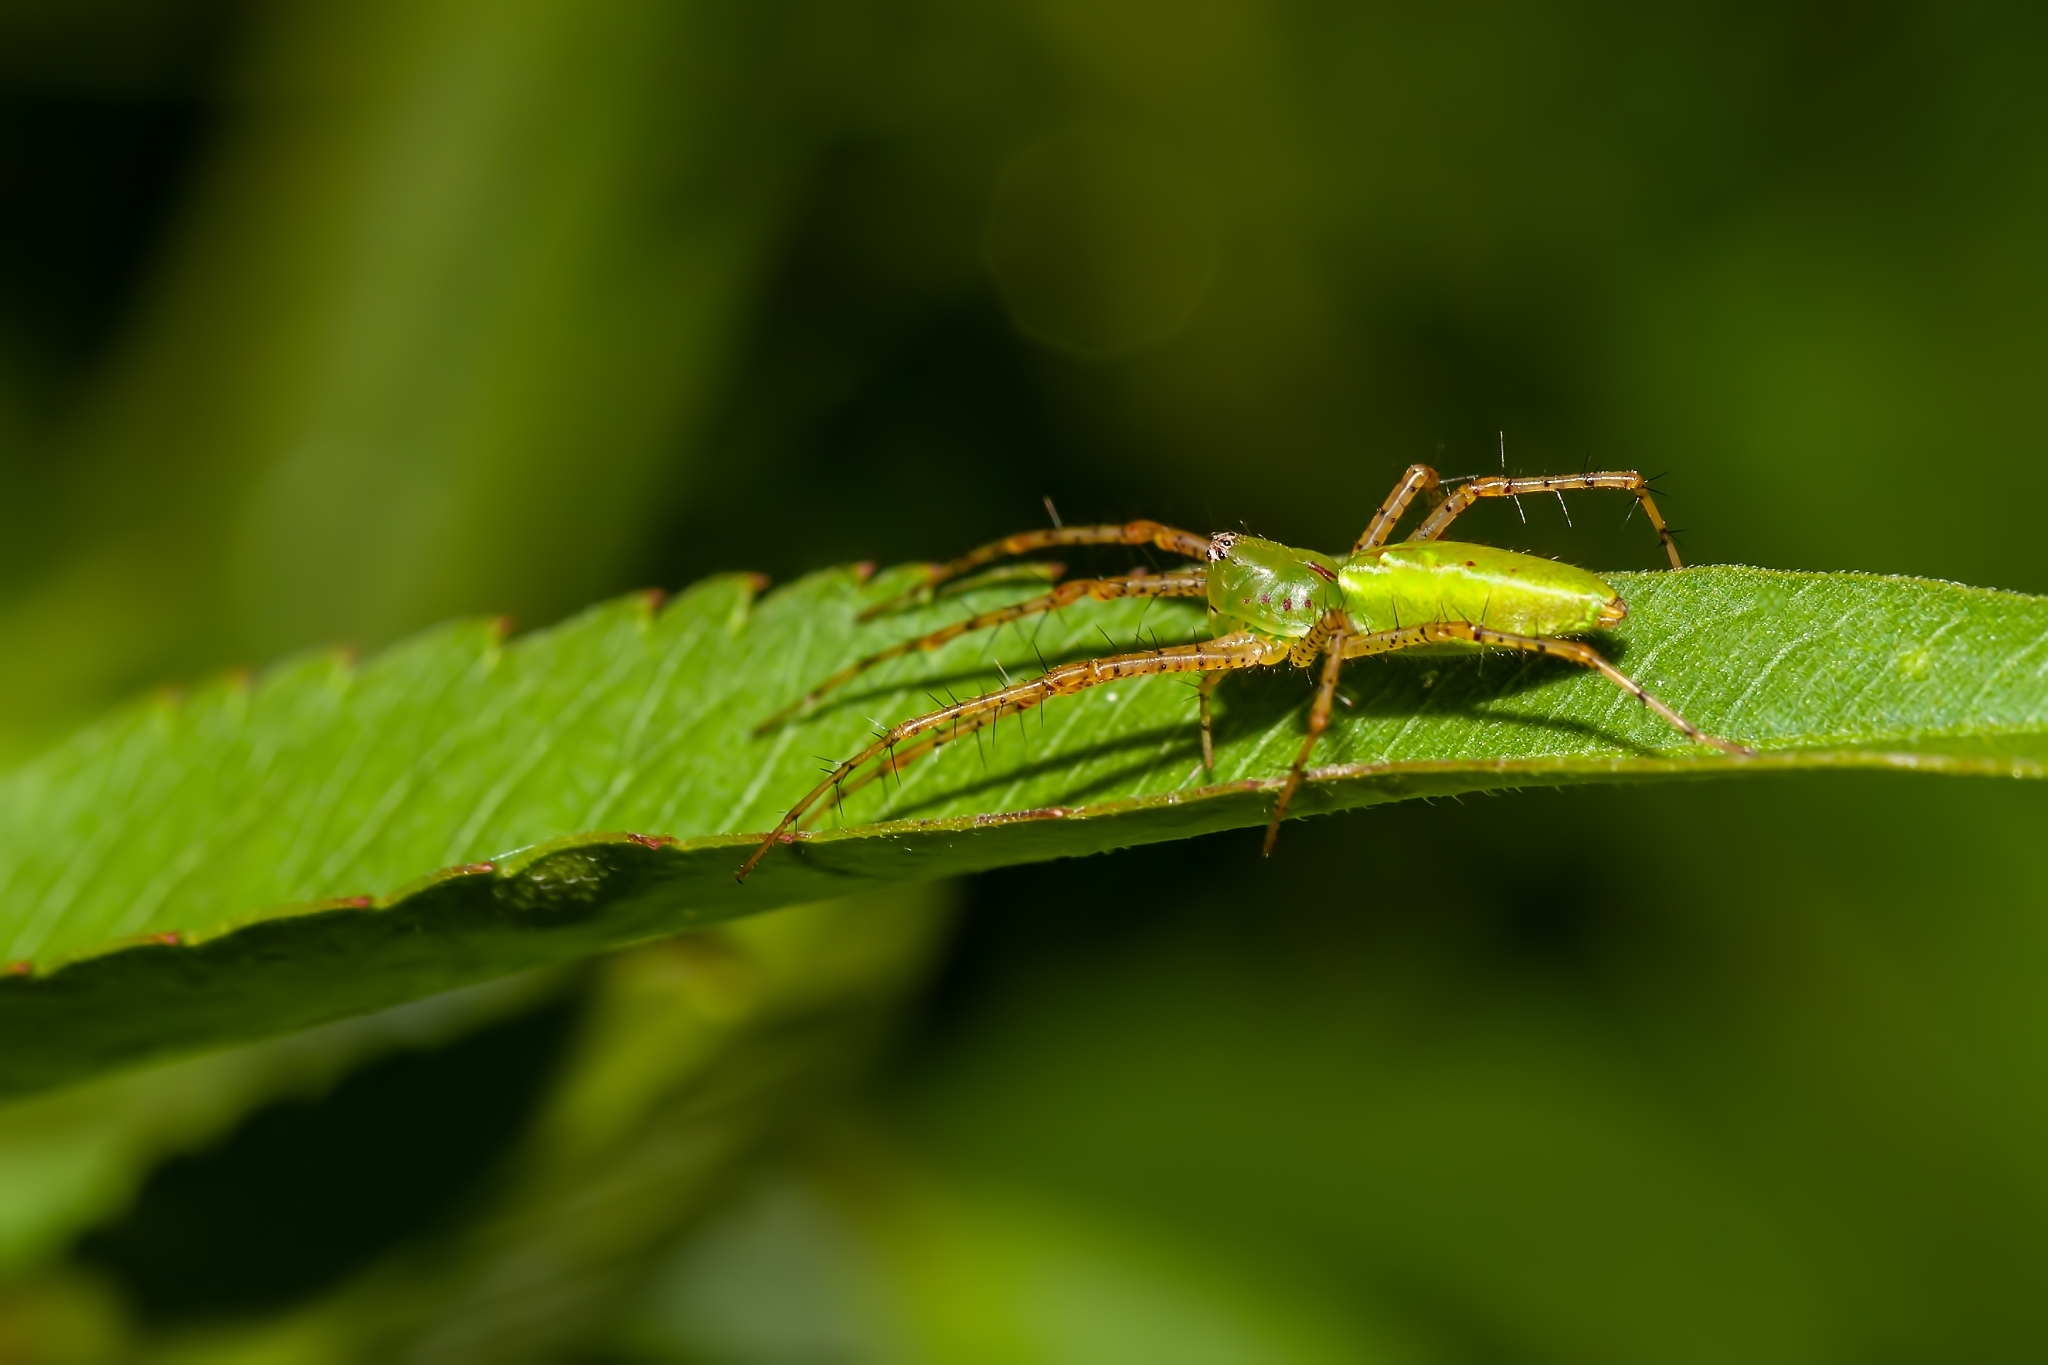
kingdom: Animalia
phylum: Arthropoda
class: Arachnida
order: Araneae
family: Oxyopidae
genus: Peucetia
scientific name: Peucetia viridans
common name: Lynx spiders
